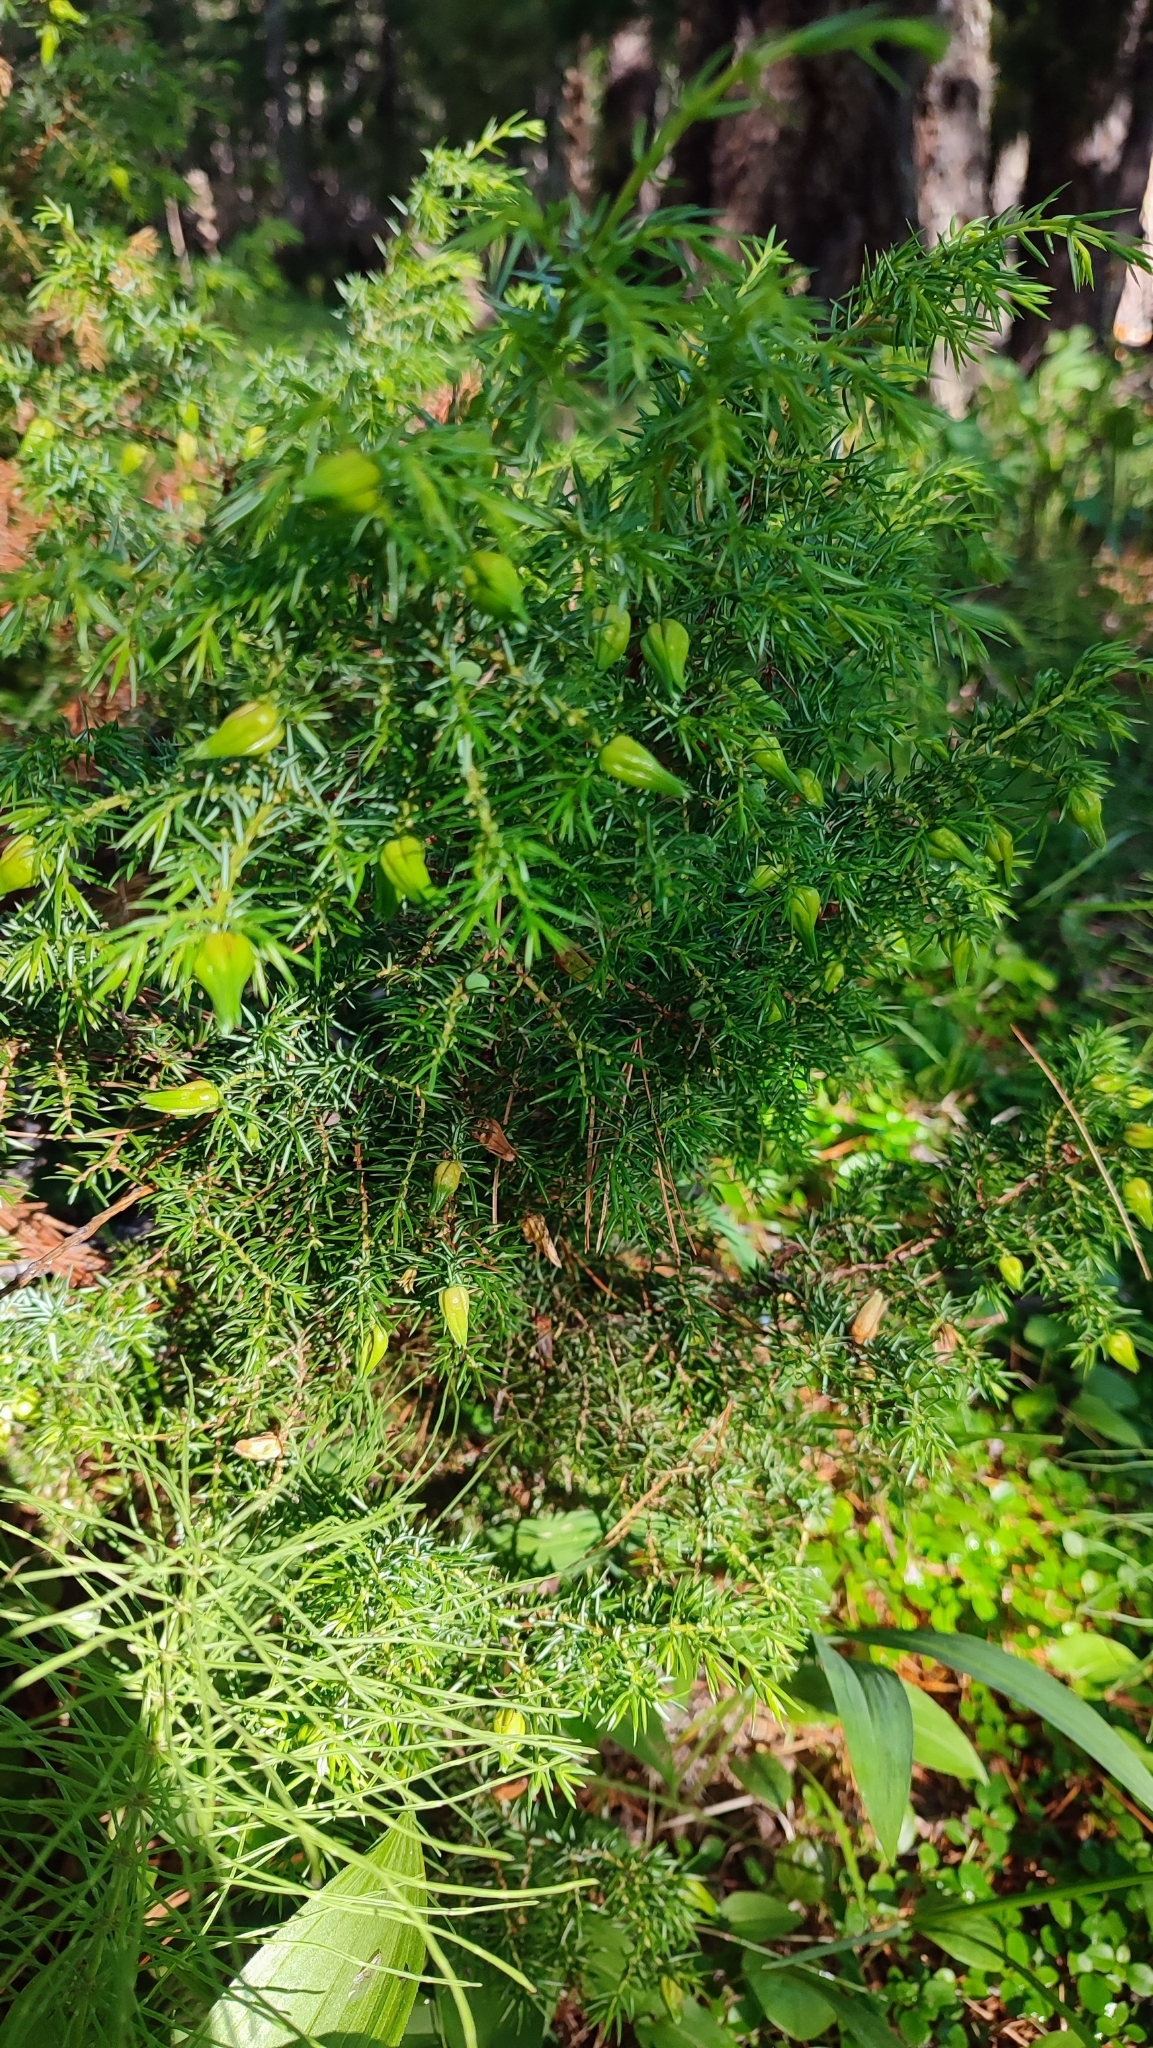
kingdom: Plantae
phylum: Tracheophyta
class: Pinopsida
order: Pinales
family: Cupressaceae
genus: Juniperus
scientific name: Juniperus communis
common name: Common juniper
